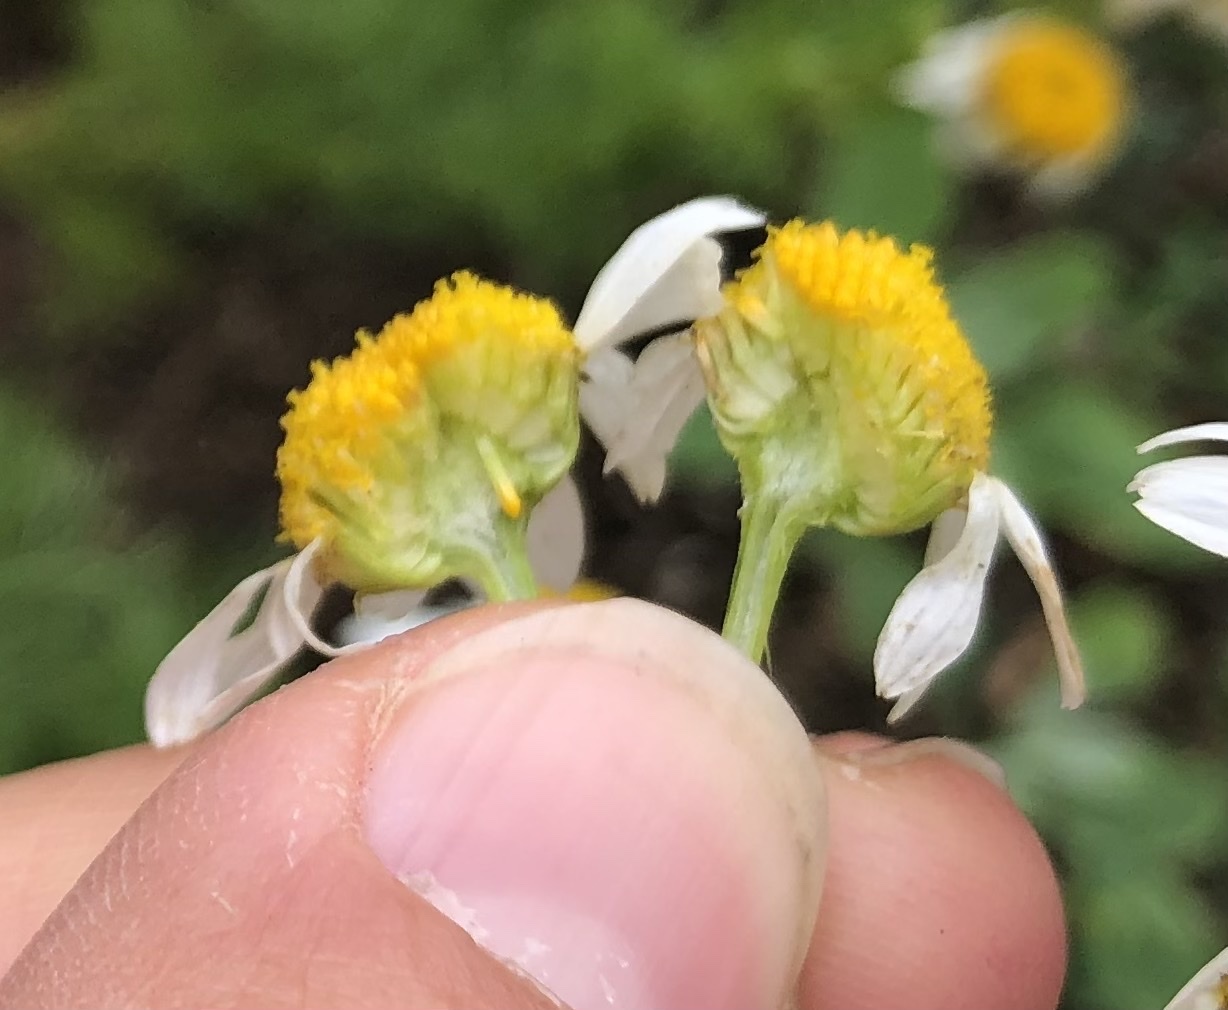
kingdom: Plantae
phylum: Tracheophyta
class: Magnoliopsida
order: Asterales
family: Asteraceae
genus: Tripleurospermum
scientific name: Tripleurospermum inodorum
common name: Scentless mayweed
